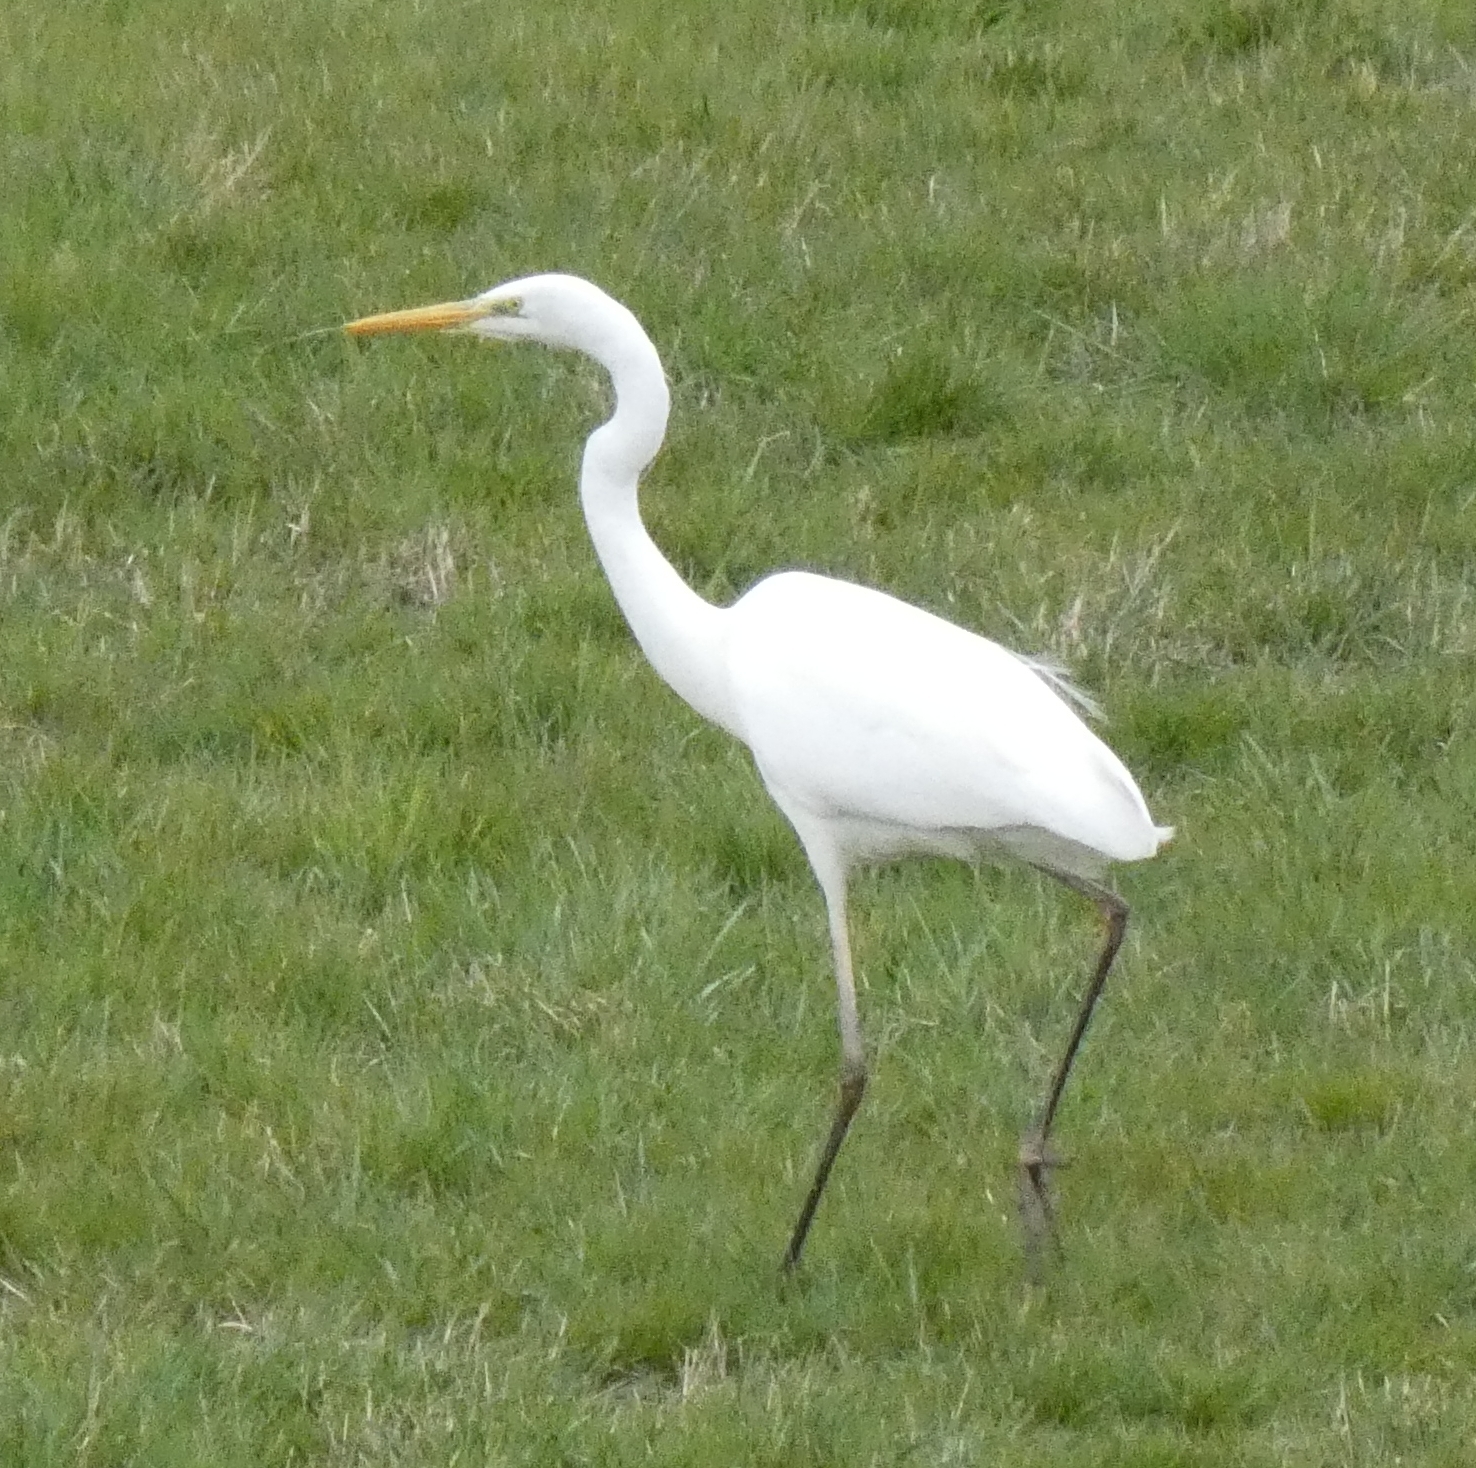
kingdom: Animalia
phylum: Chordata
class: Aves
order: Pelecaniformes
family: Ardeidae
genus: Ardea
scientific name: Ardea alba
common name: Great egret
